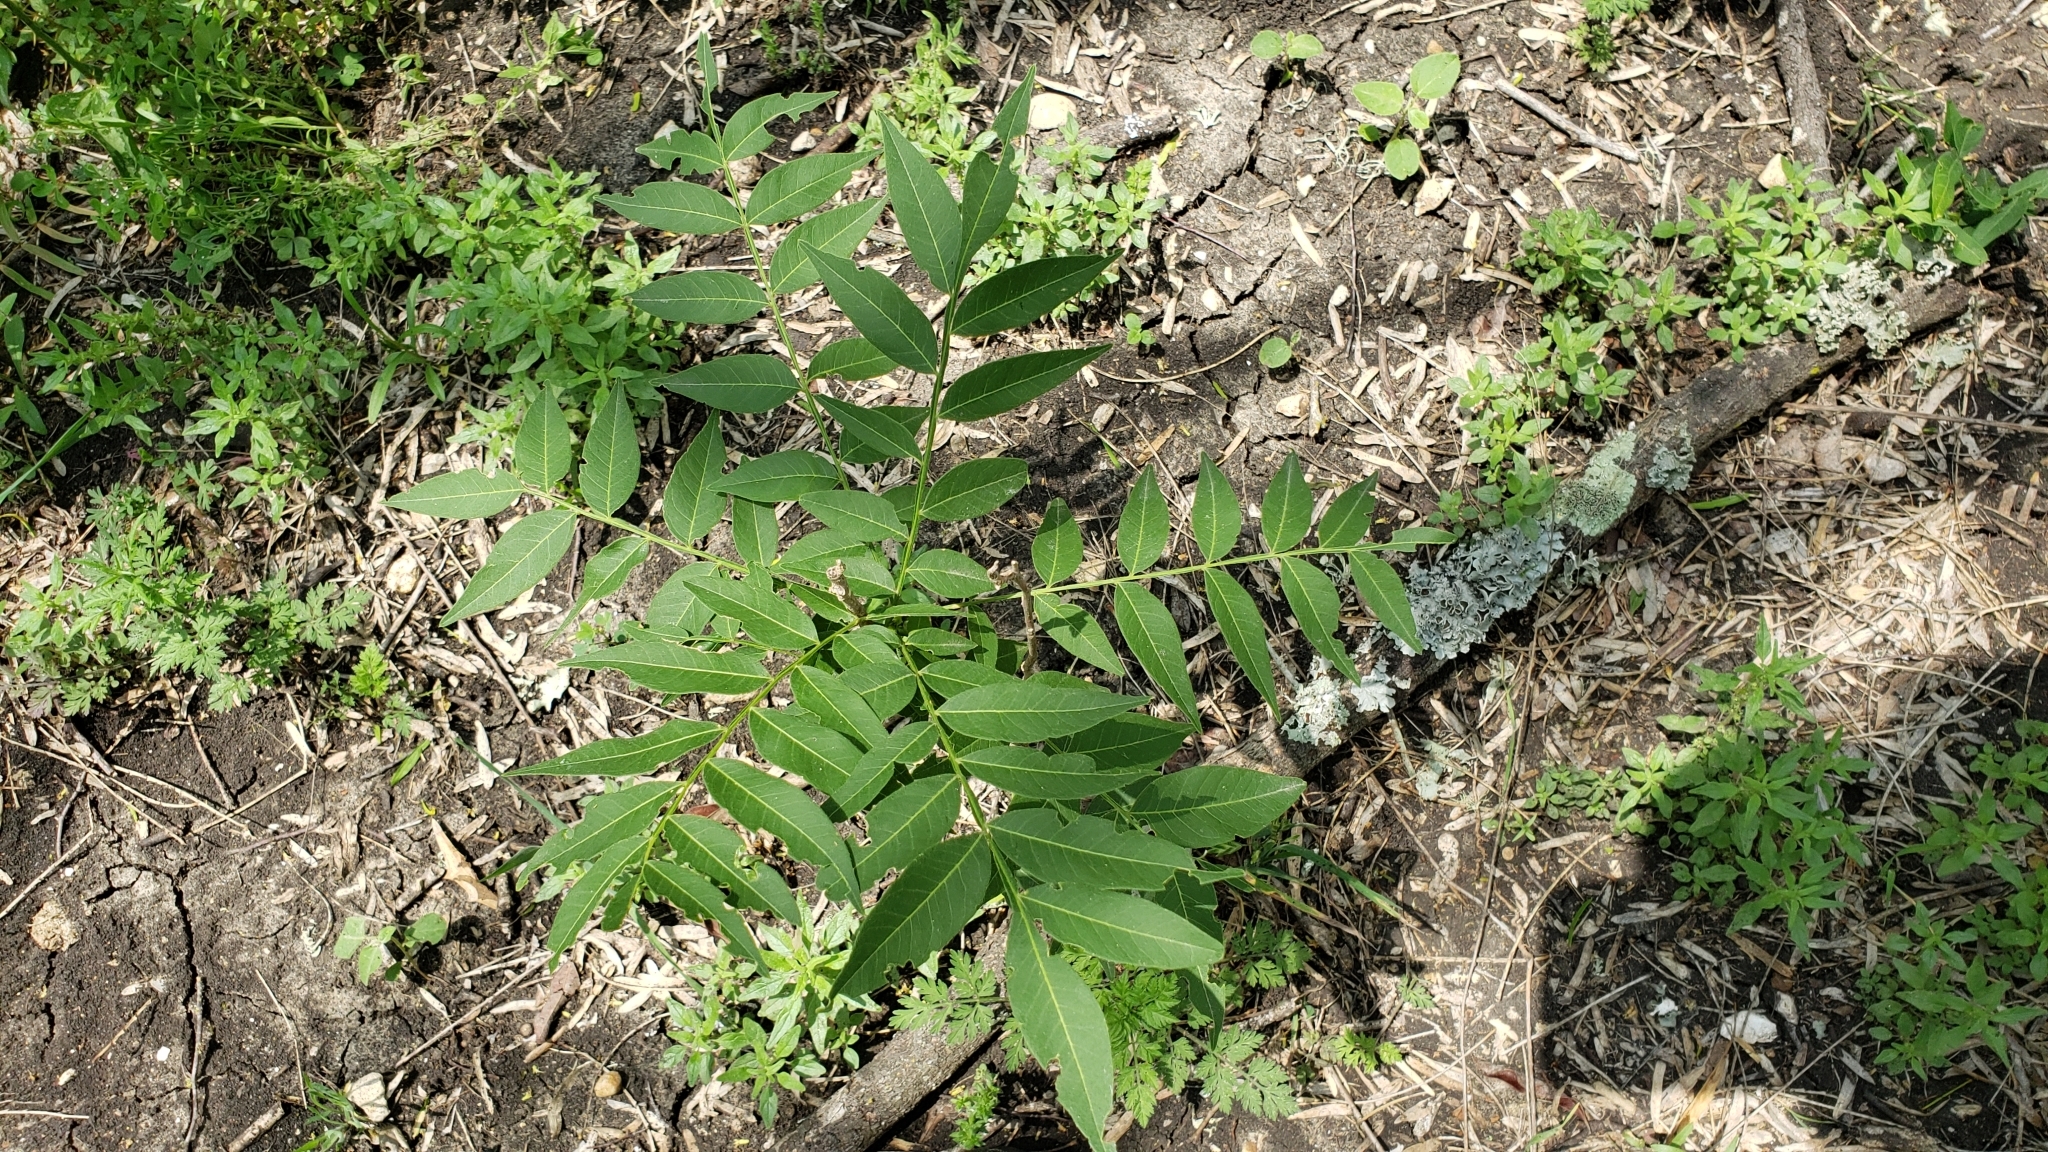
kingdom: Plantae
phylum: Tracheophyta
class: Magnoliopsida
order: Sapindales
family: Sapindaceae
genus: Sapindus
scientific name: Sapindus drummondii
